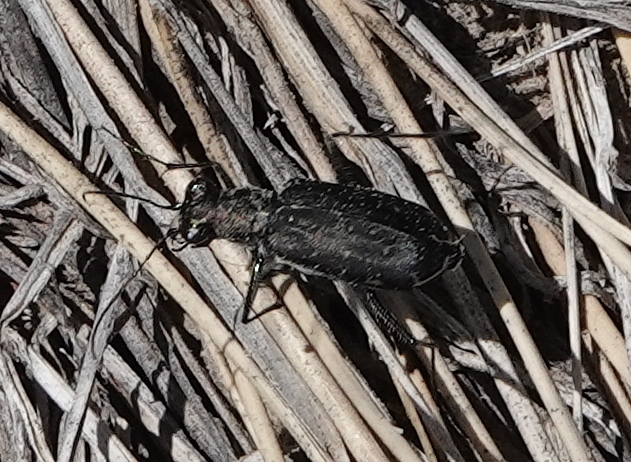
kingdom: Animalia
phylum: Arthropoda
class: Insecta
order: Coleoptera
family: Carabidae
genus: Cicindela
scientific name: Cicindela punctulata
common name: Punctured tiger beetle
